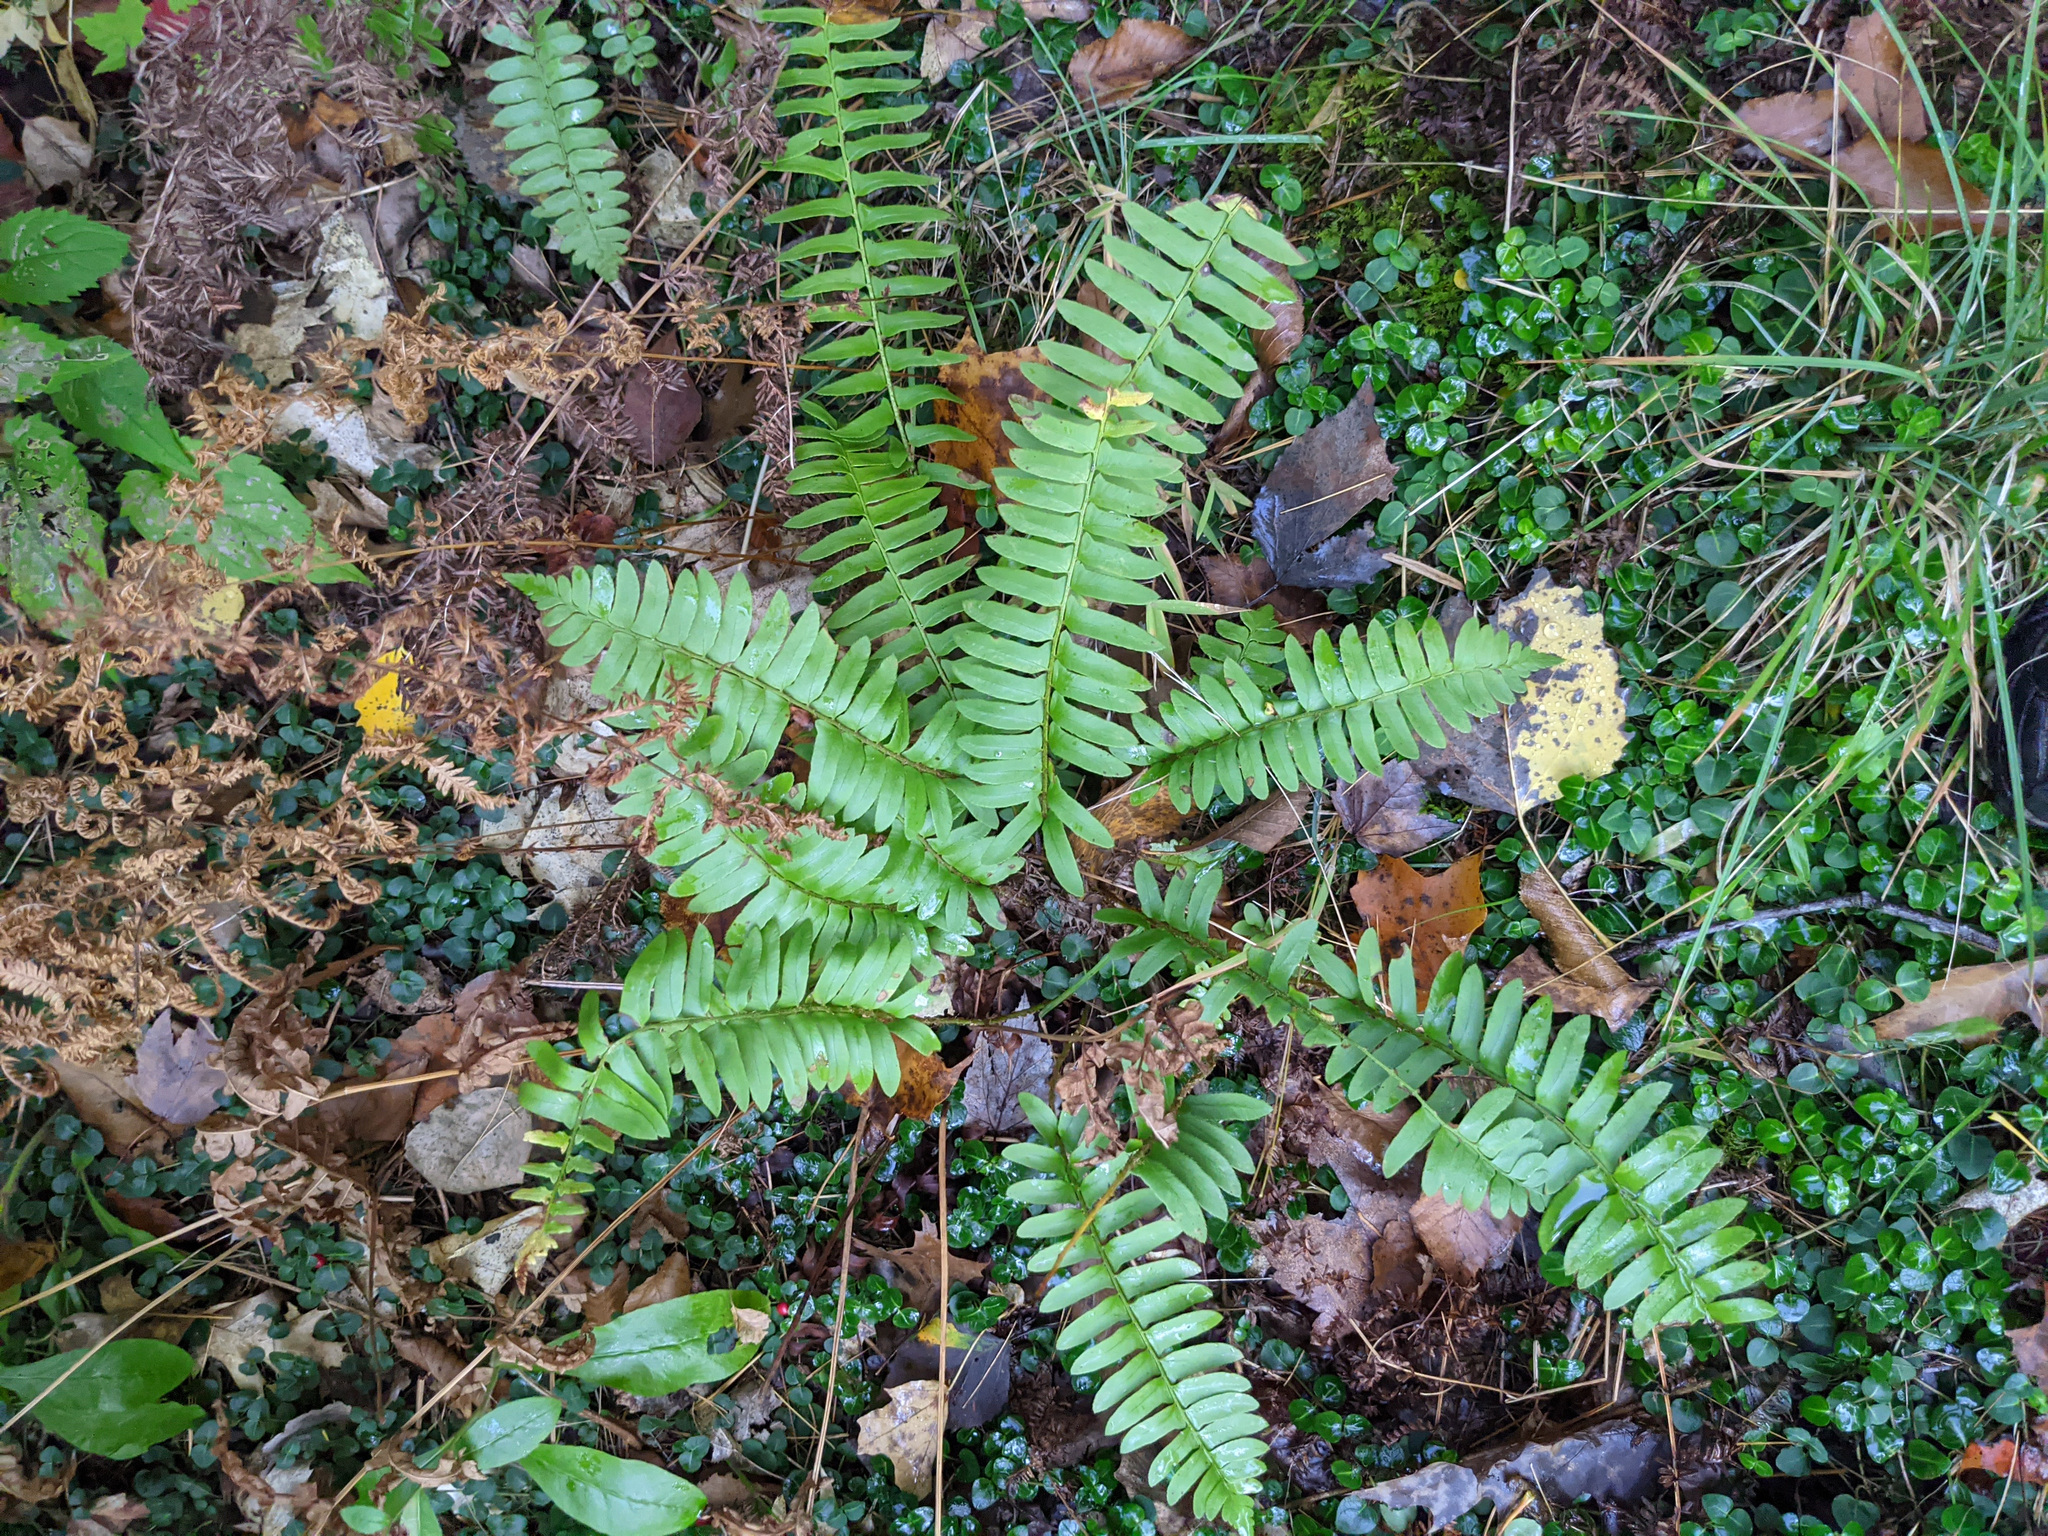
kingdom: Plantae
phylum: Tracheophyta
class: Polypodiopsida
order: Polypodiales
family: Dryopteridaceae
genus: Polystichum
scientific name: Polystichum acrostichoides
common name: Christmas fern
